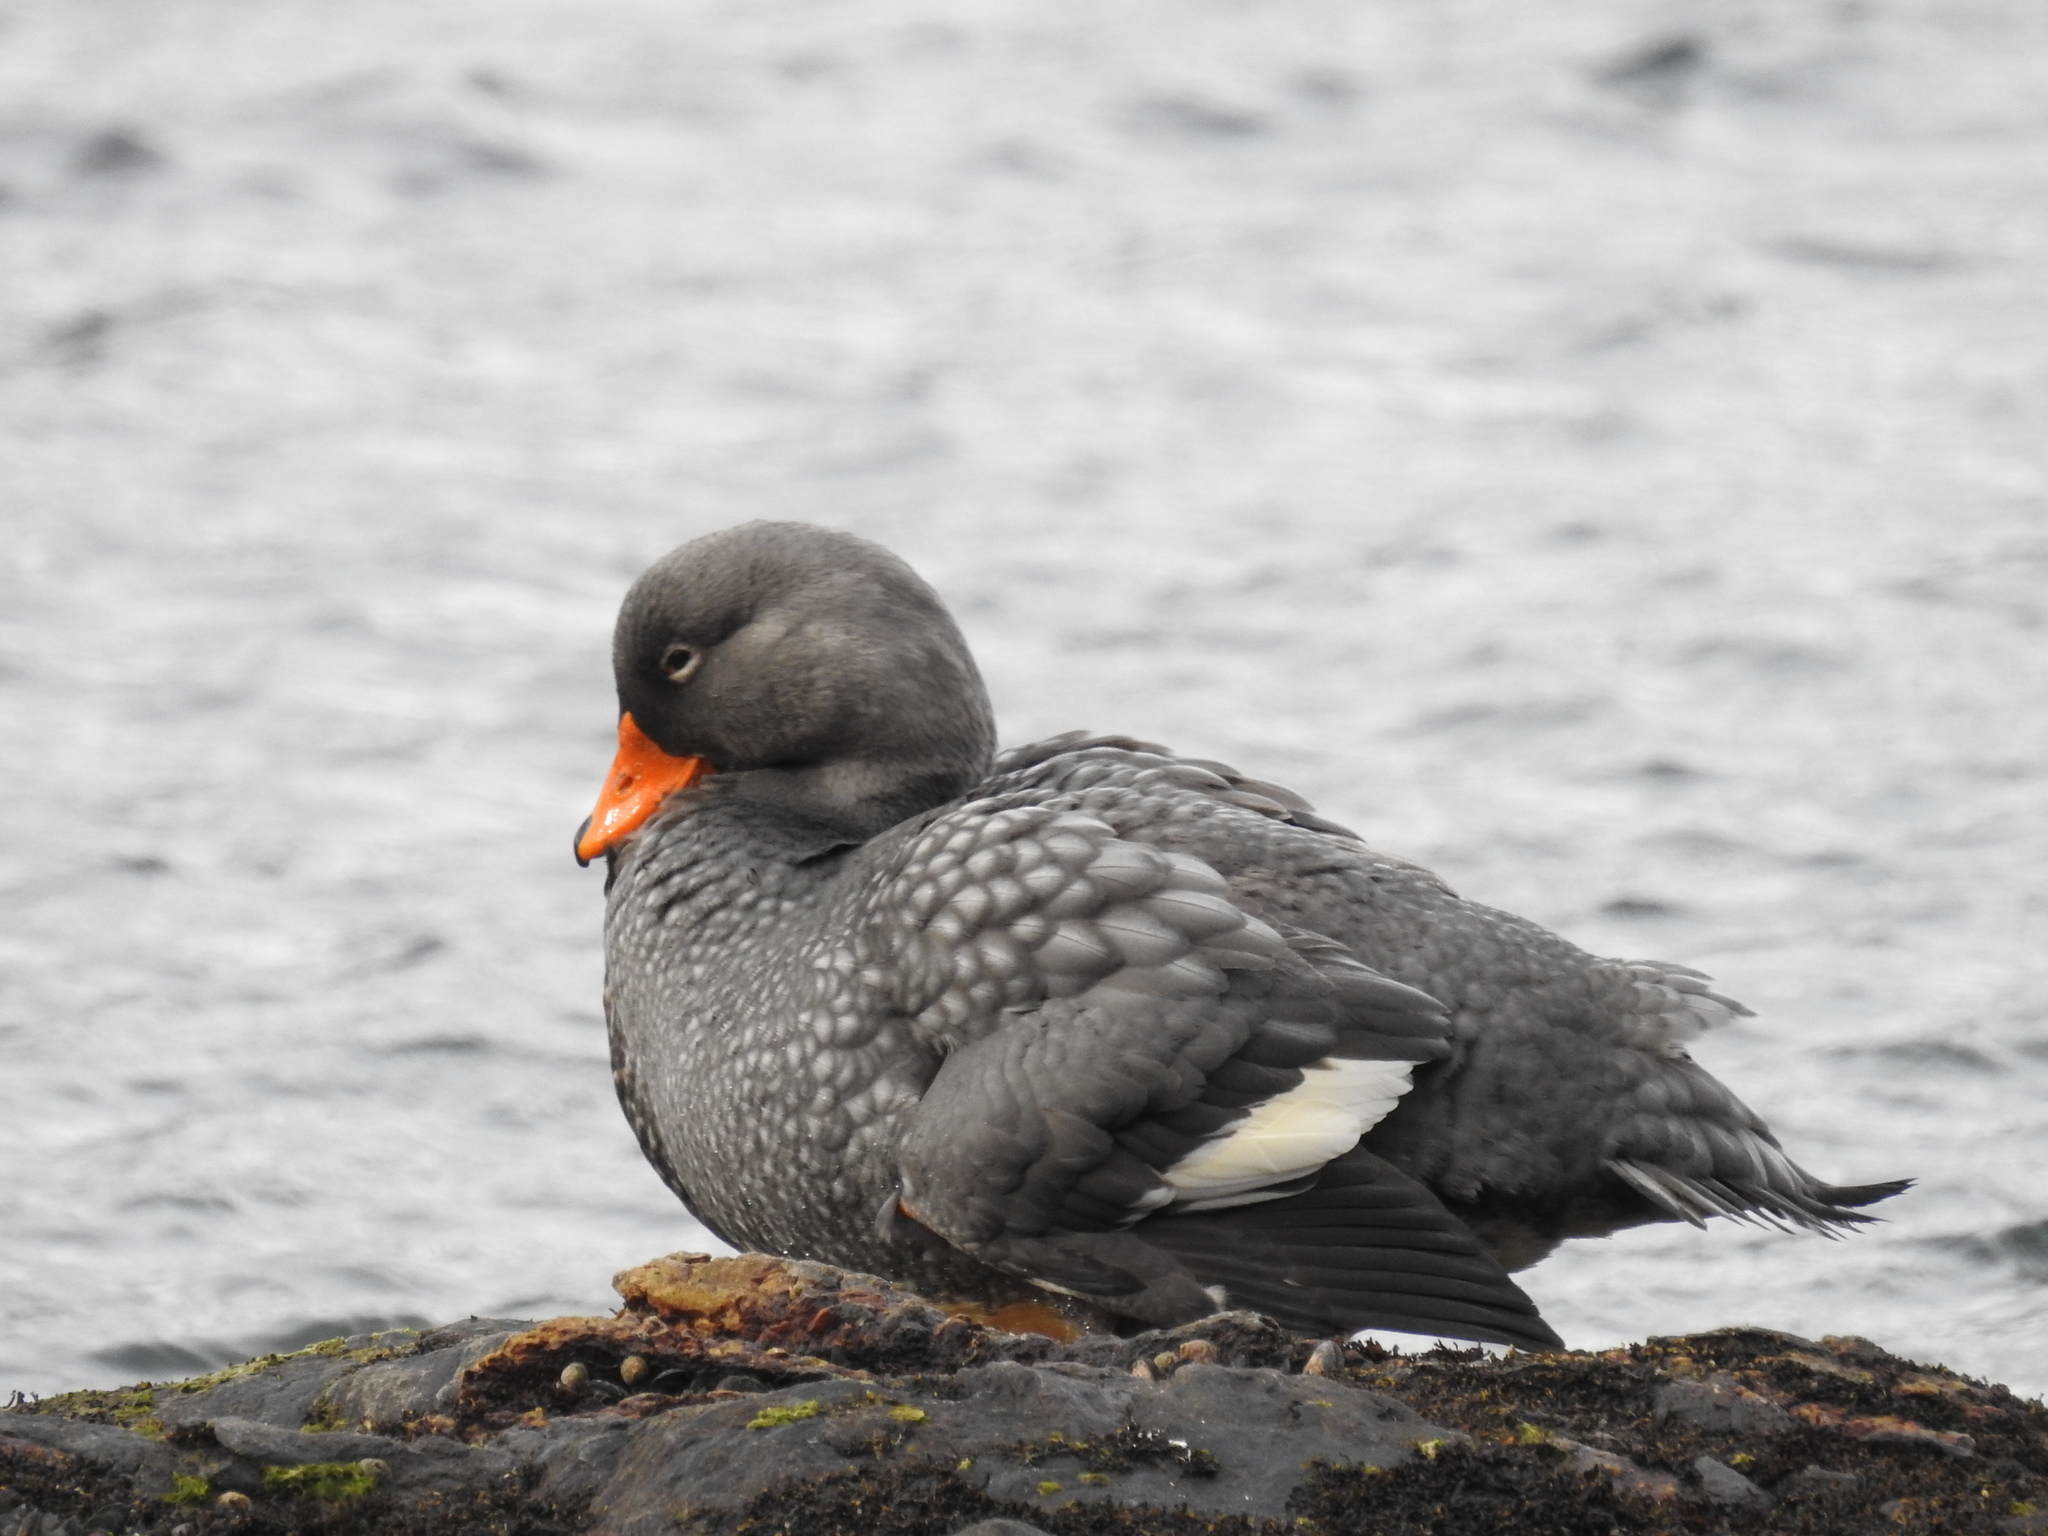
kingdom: Animalia
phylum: Chordata
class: Aves
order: Anseriformes
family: Anatidae
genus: Tachyeres
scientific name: Tachyeres pteneres
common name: Fuegian steamer duck
